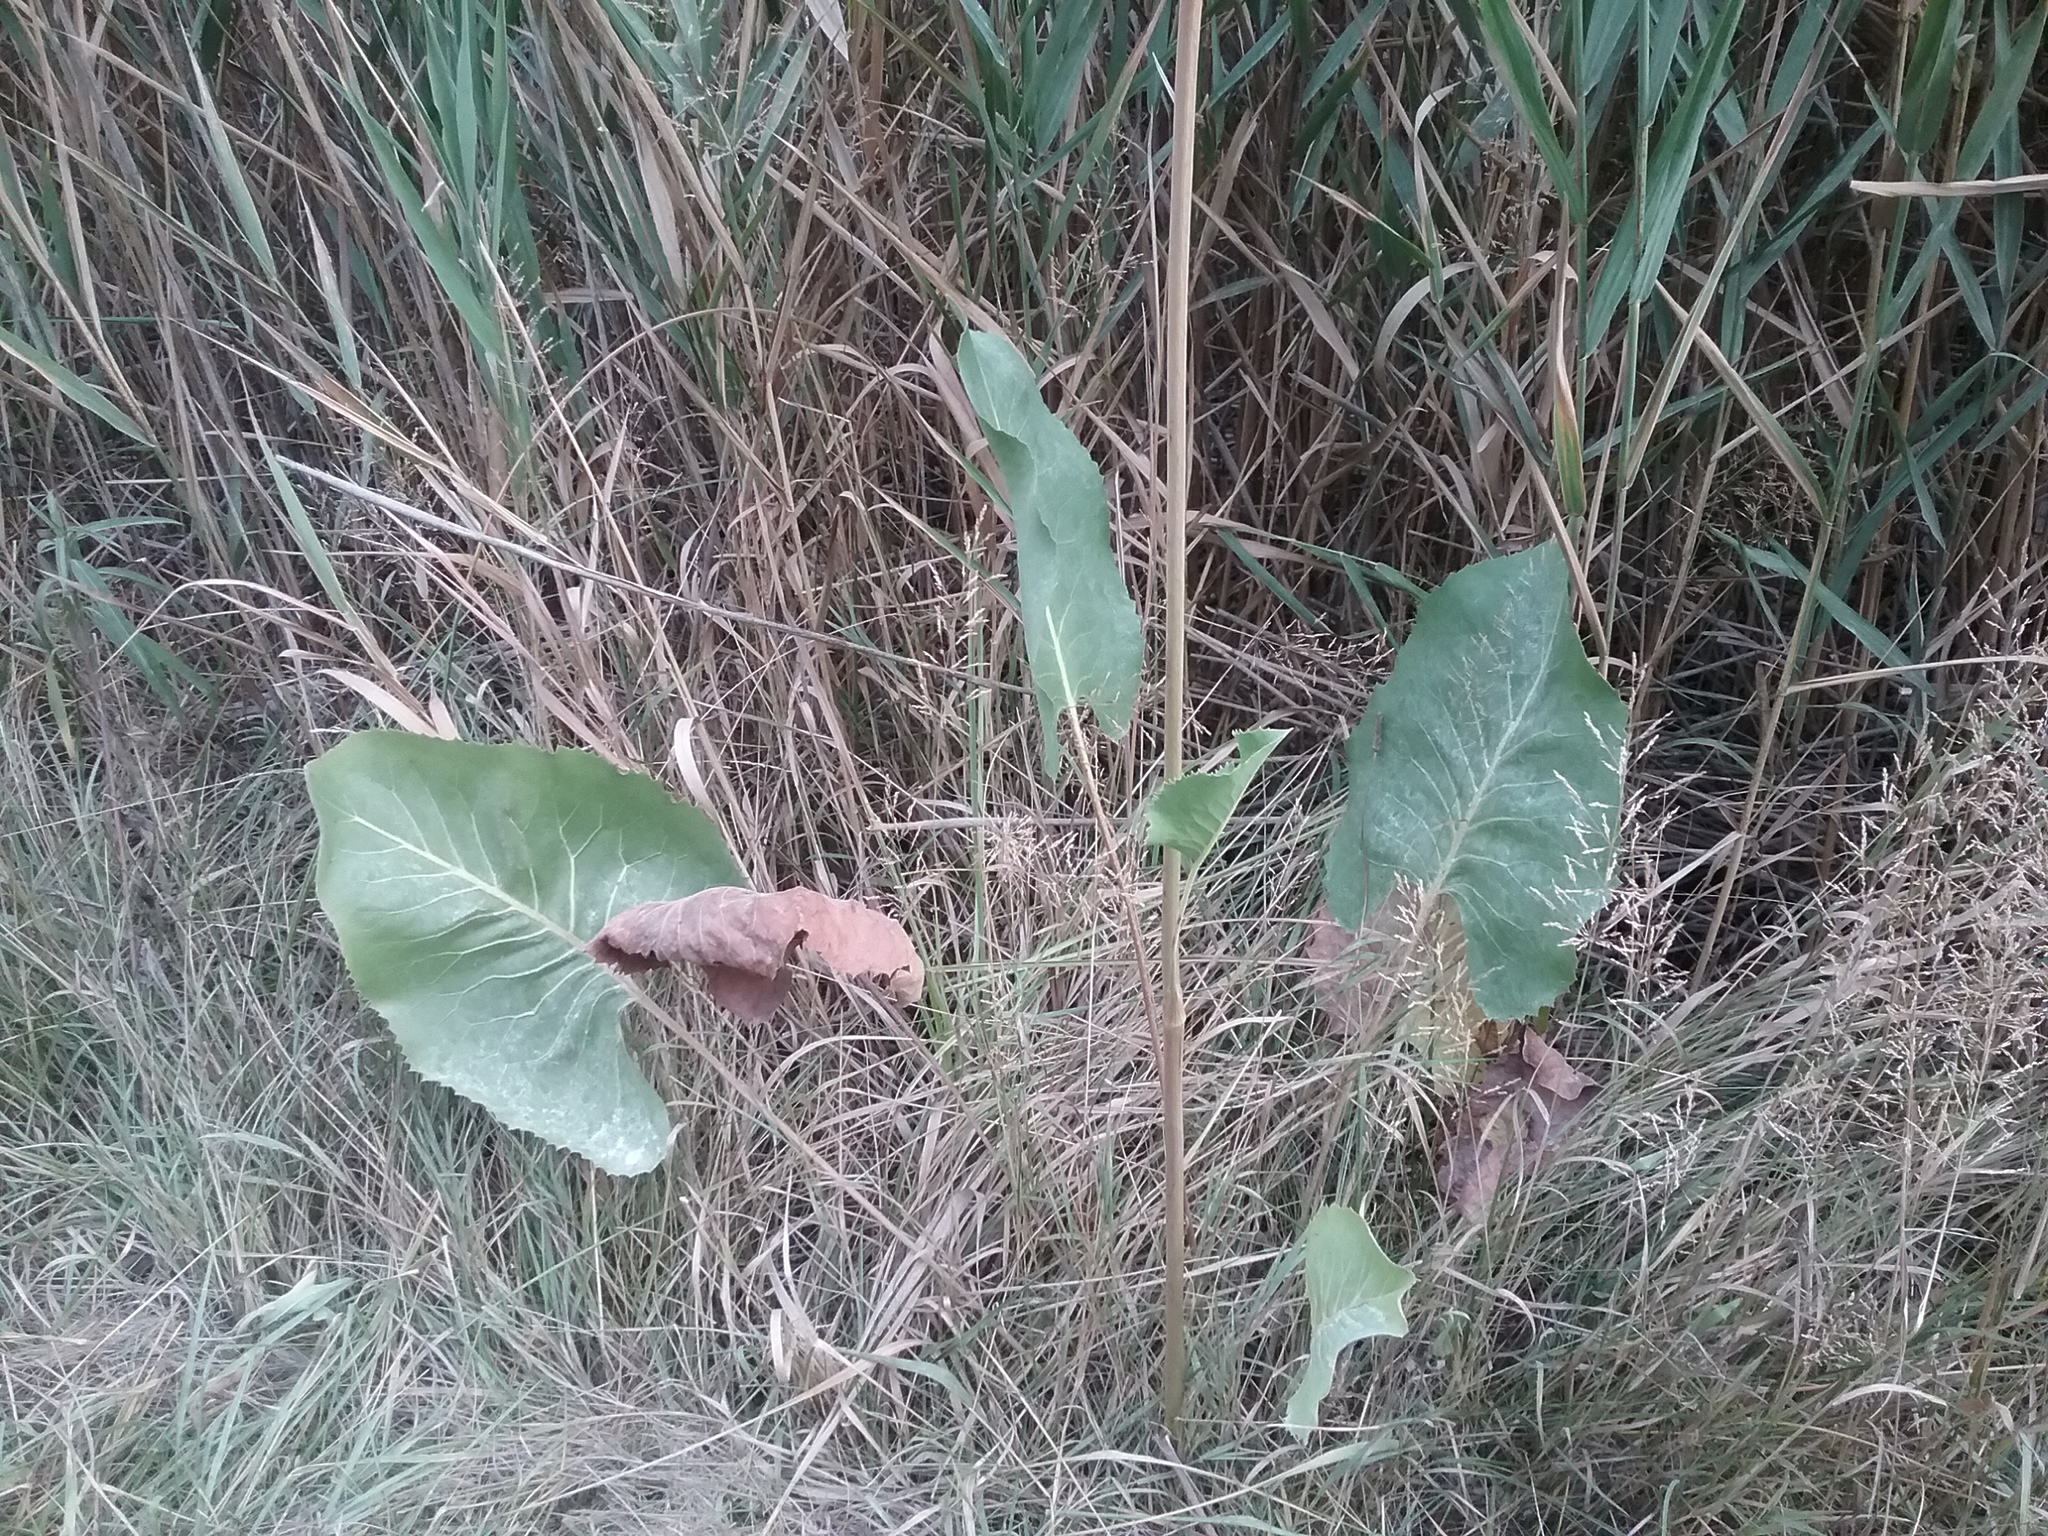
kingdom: Plantae
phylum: Tracheophyta
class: Magnoliopsida
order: Asterales
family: Asteraceae
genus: Silphium
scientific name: Silphium terebinthinaceum
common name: Basal-leaf rosinweed
